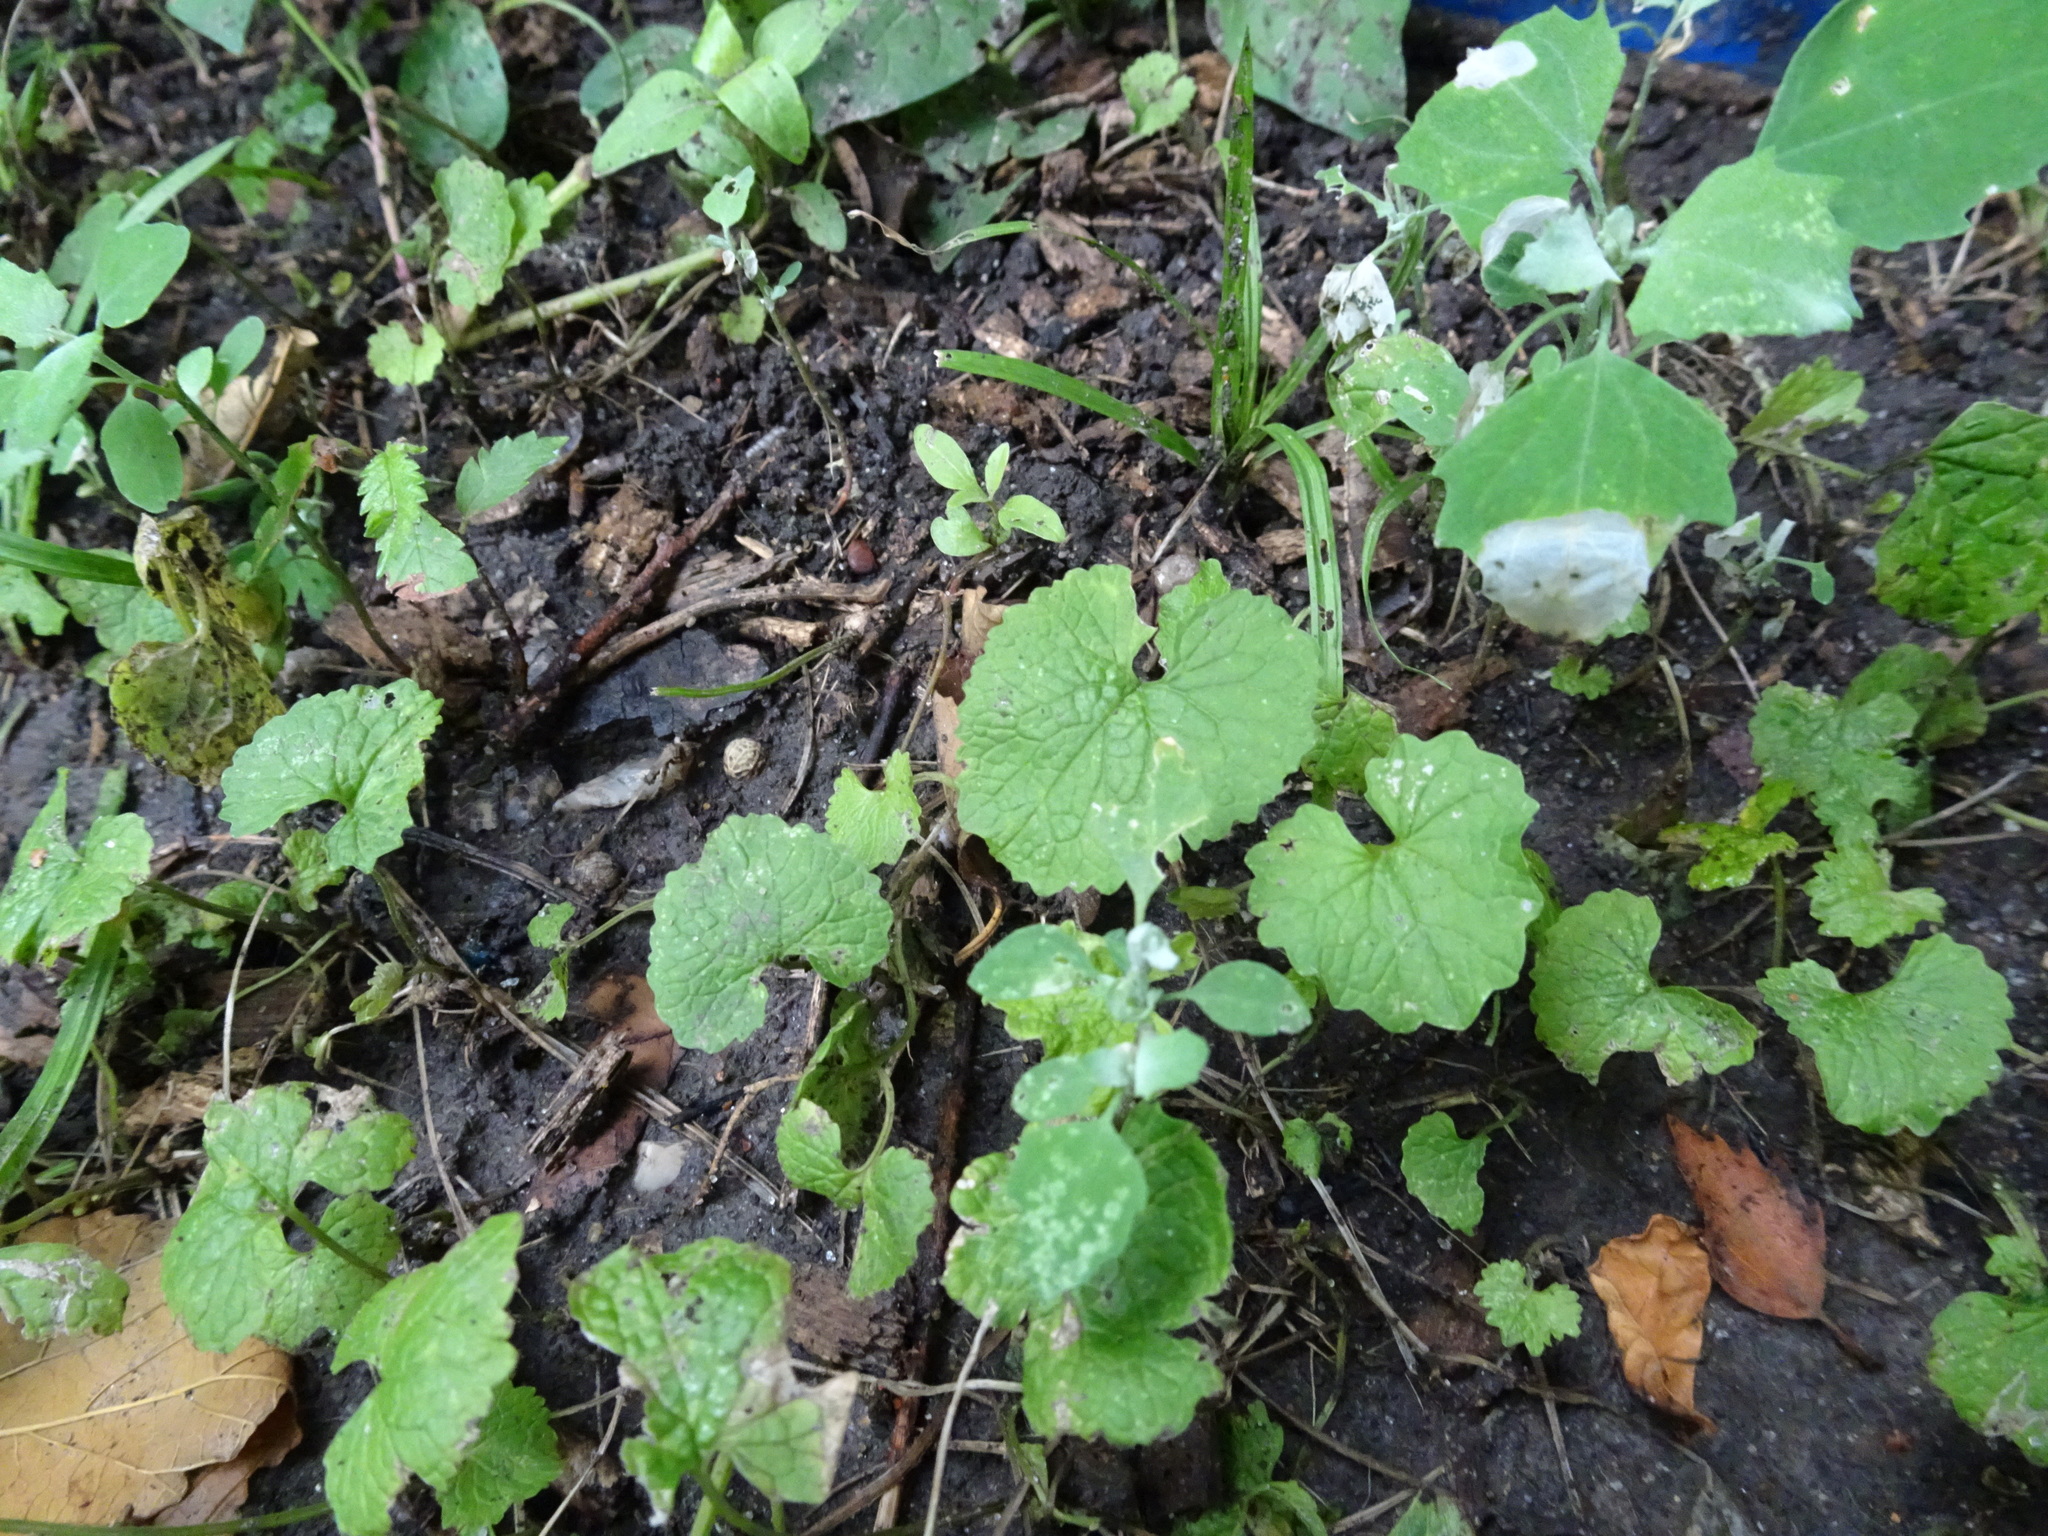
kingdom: Plantae
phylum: Tracheophyta
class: Magnoliopsida
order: Brassicales
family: Brassicaceae
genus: Alliaria
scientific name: Alliaria petiolata
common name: Garlic mustard
